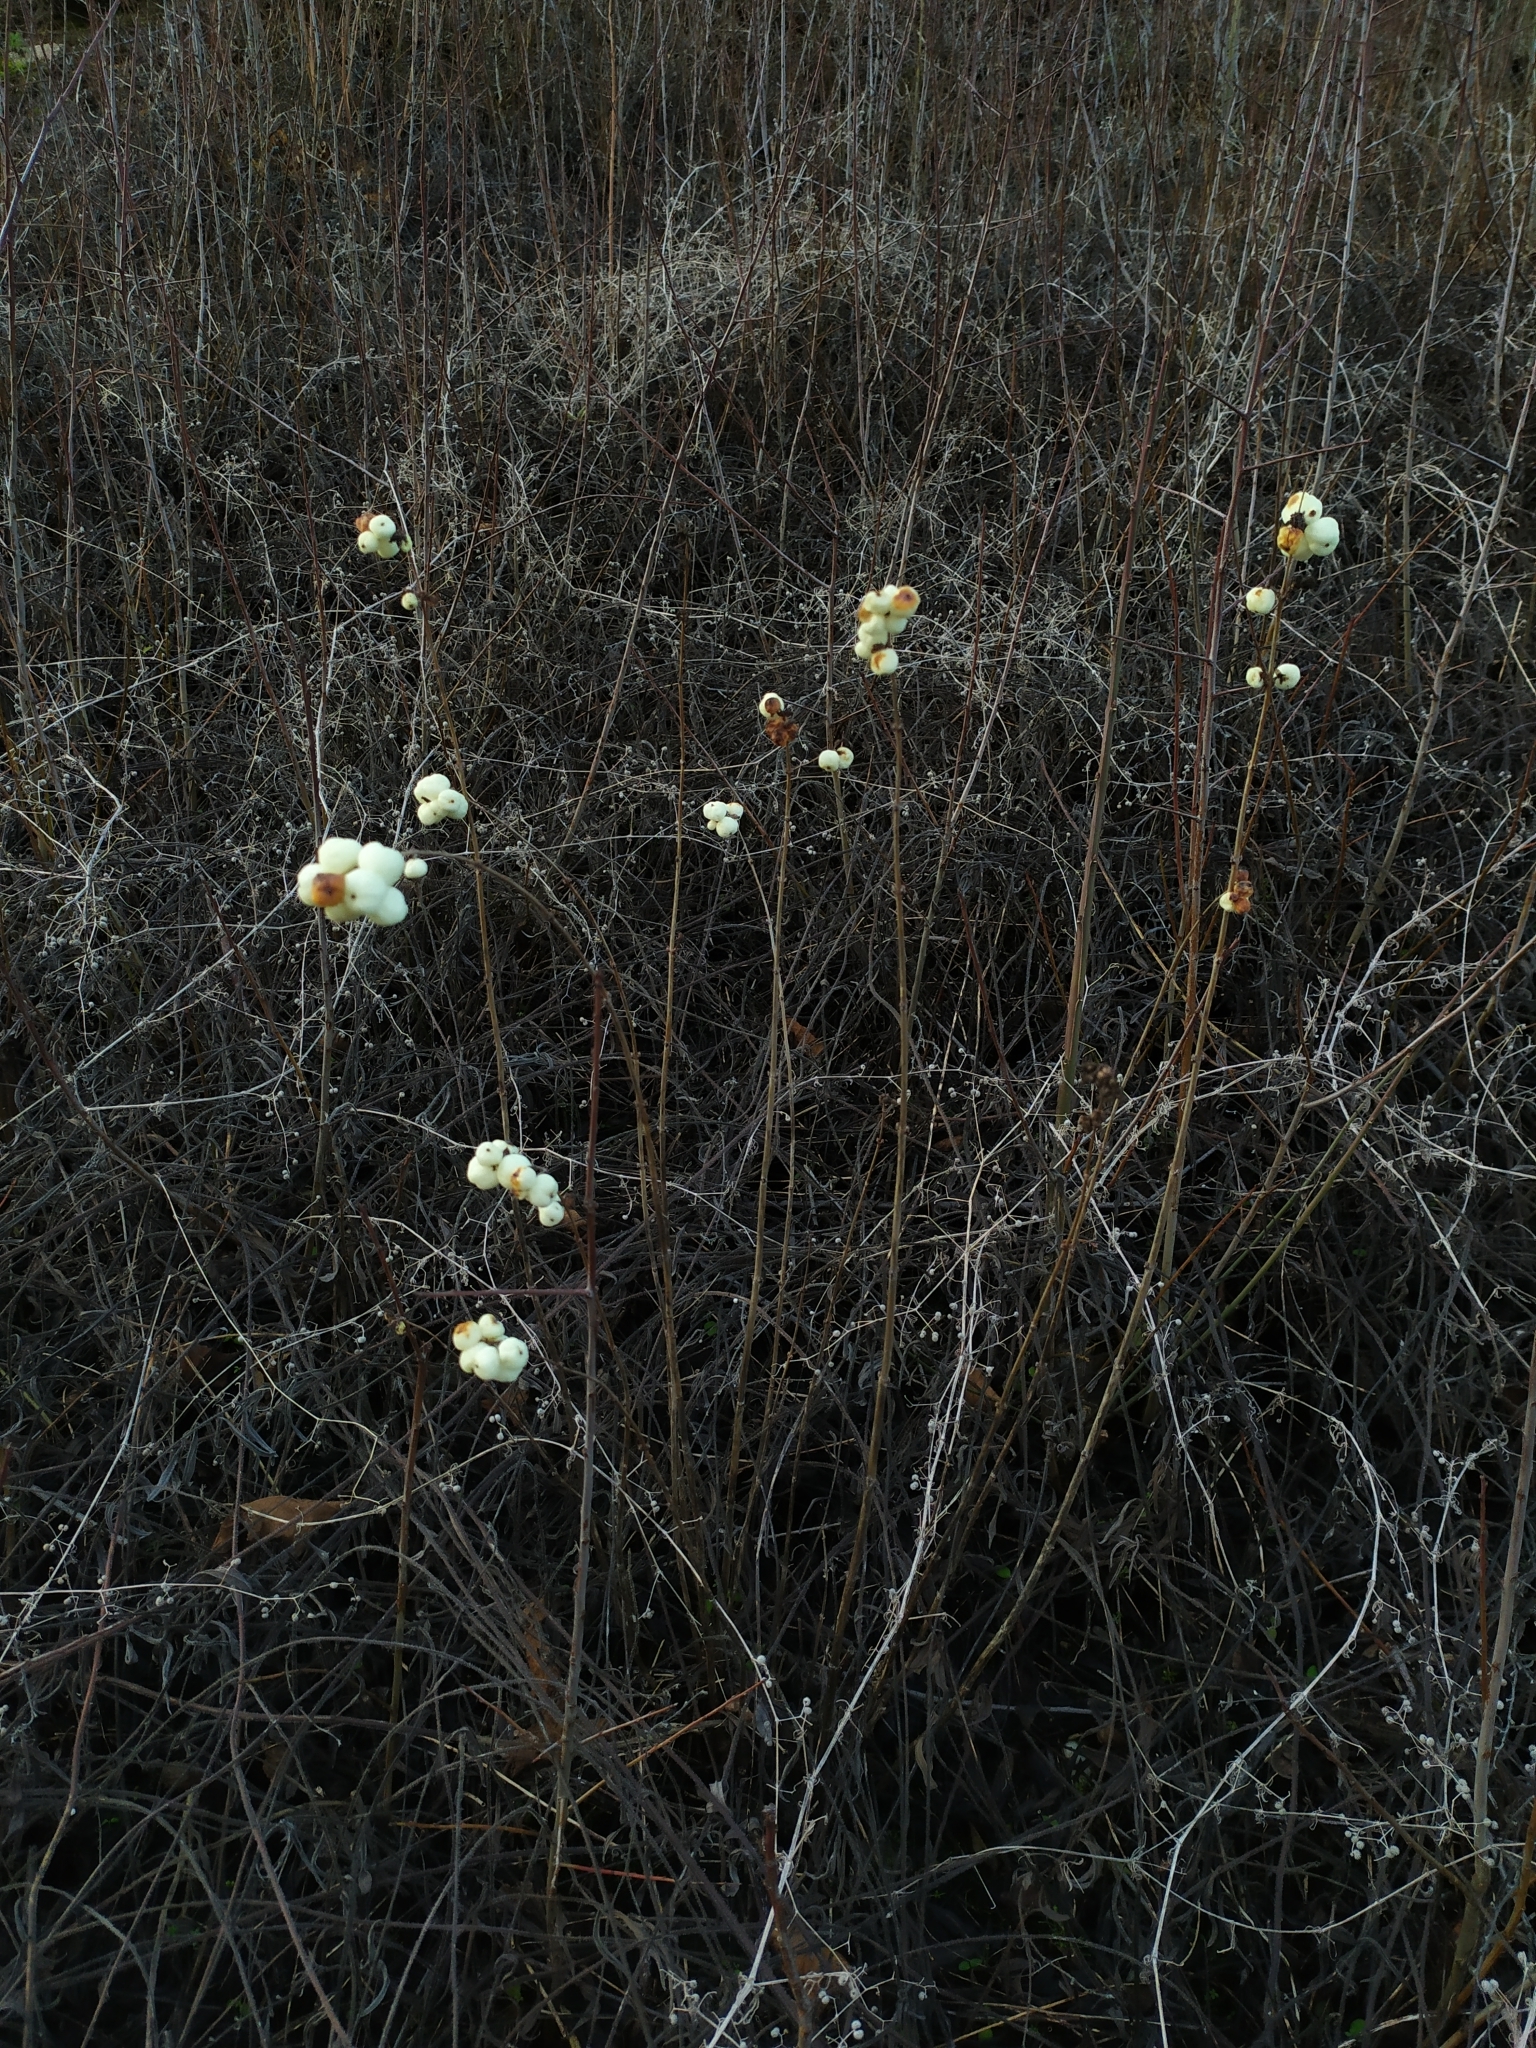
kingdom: Plantae
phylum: Tracheophyta
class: Magnoliopsida
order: Dipsacales
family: Caprifoliaceae
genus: Symphoricarpos
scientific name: Symphoricarpos albus
